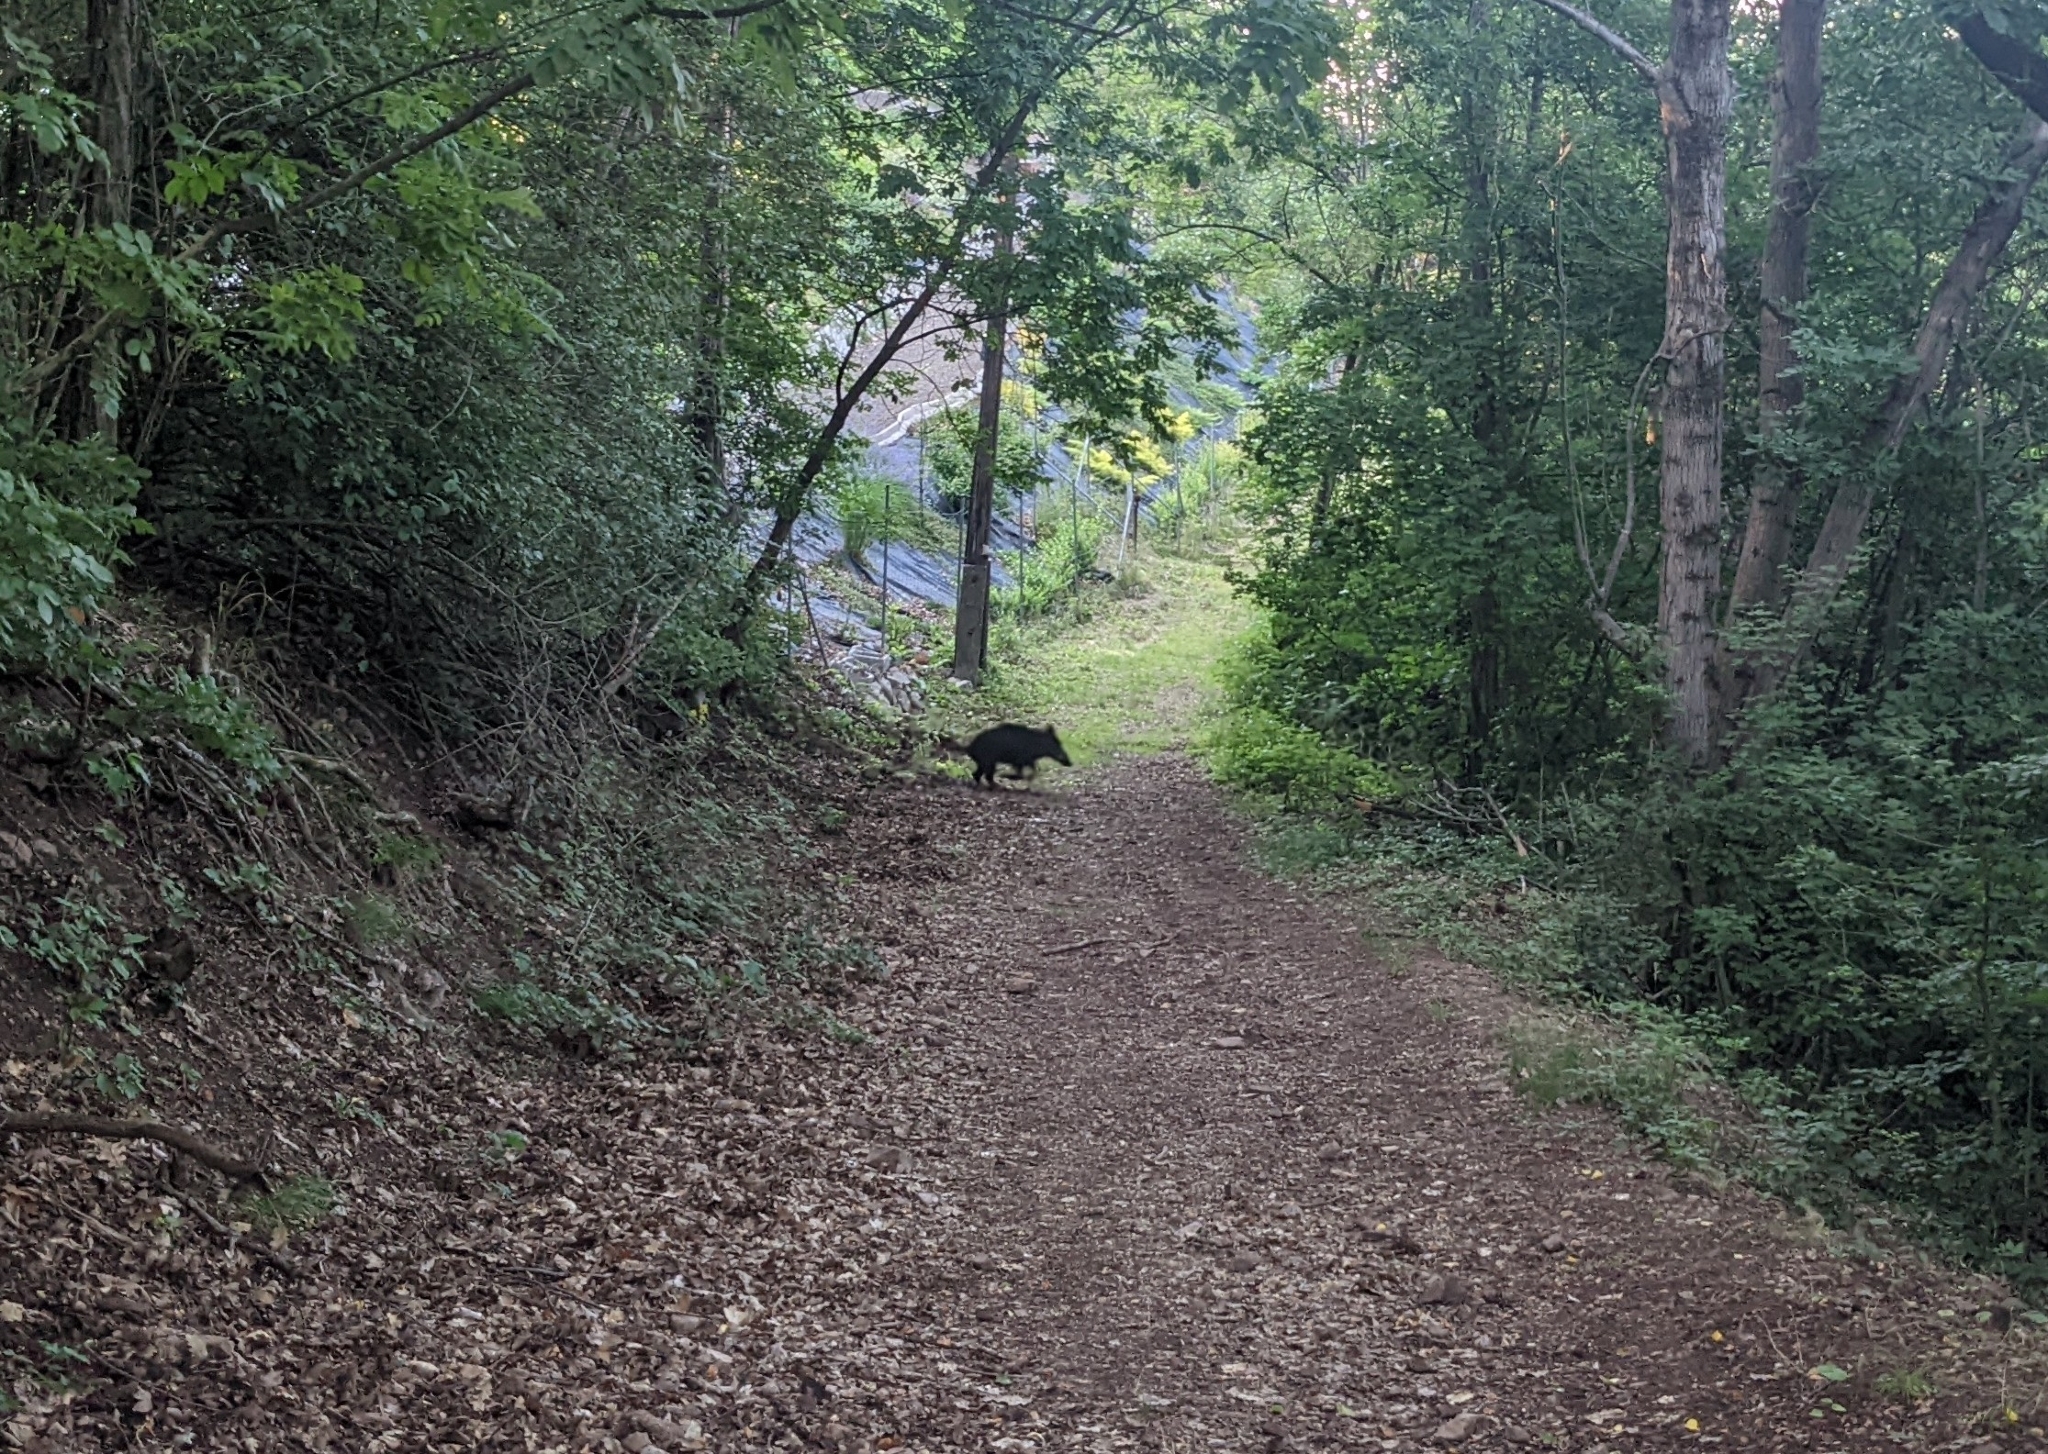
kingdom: Animalia
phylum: Chordata
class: Mammalia
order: Artiodactyla
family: Suidae
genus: Sus
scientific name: Sus scrofa
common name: Wild boar
